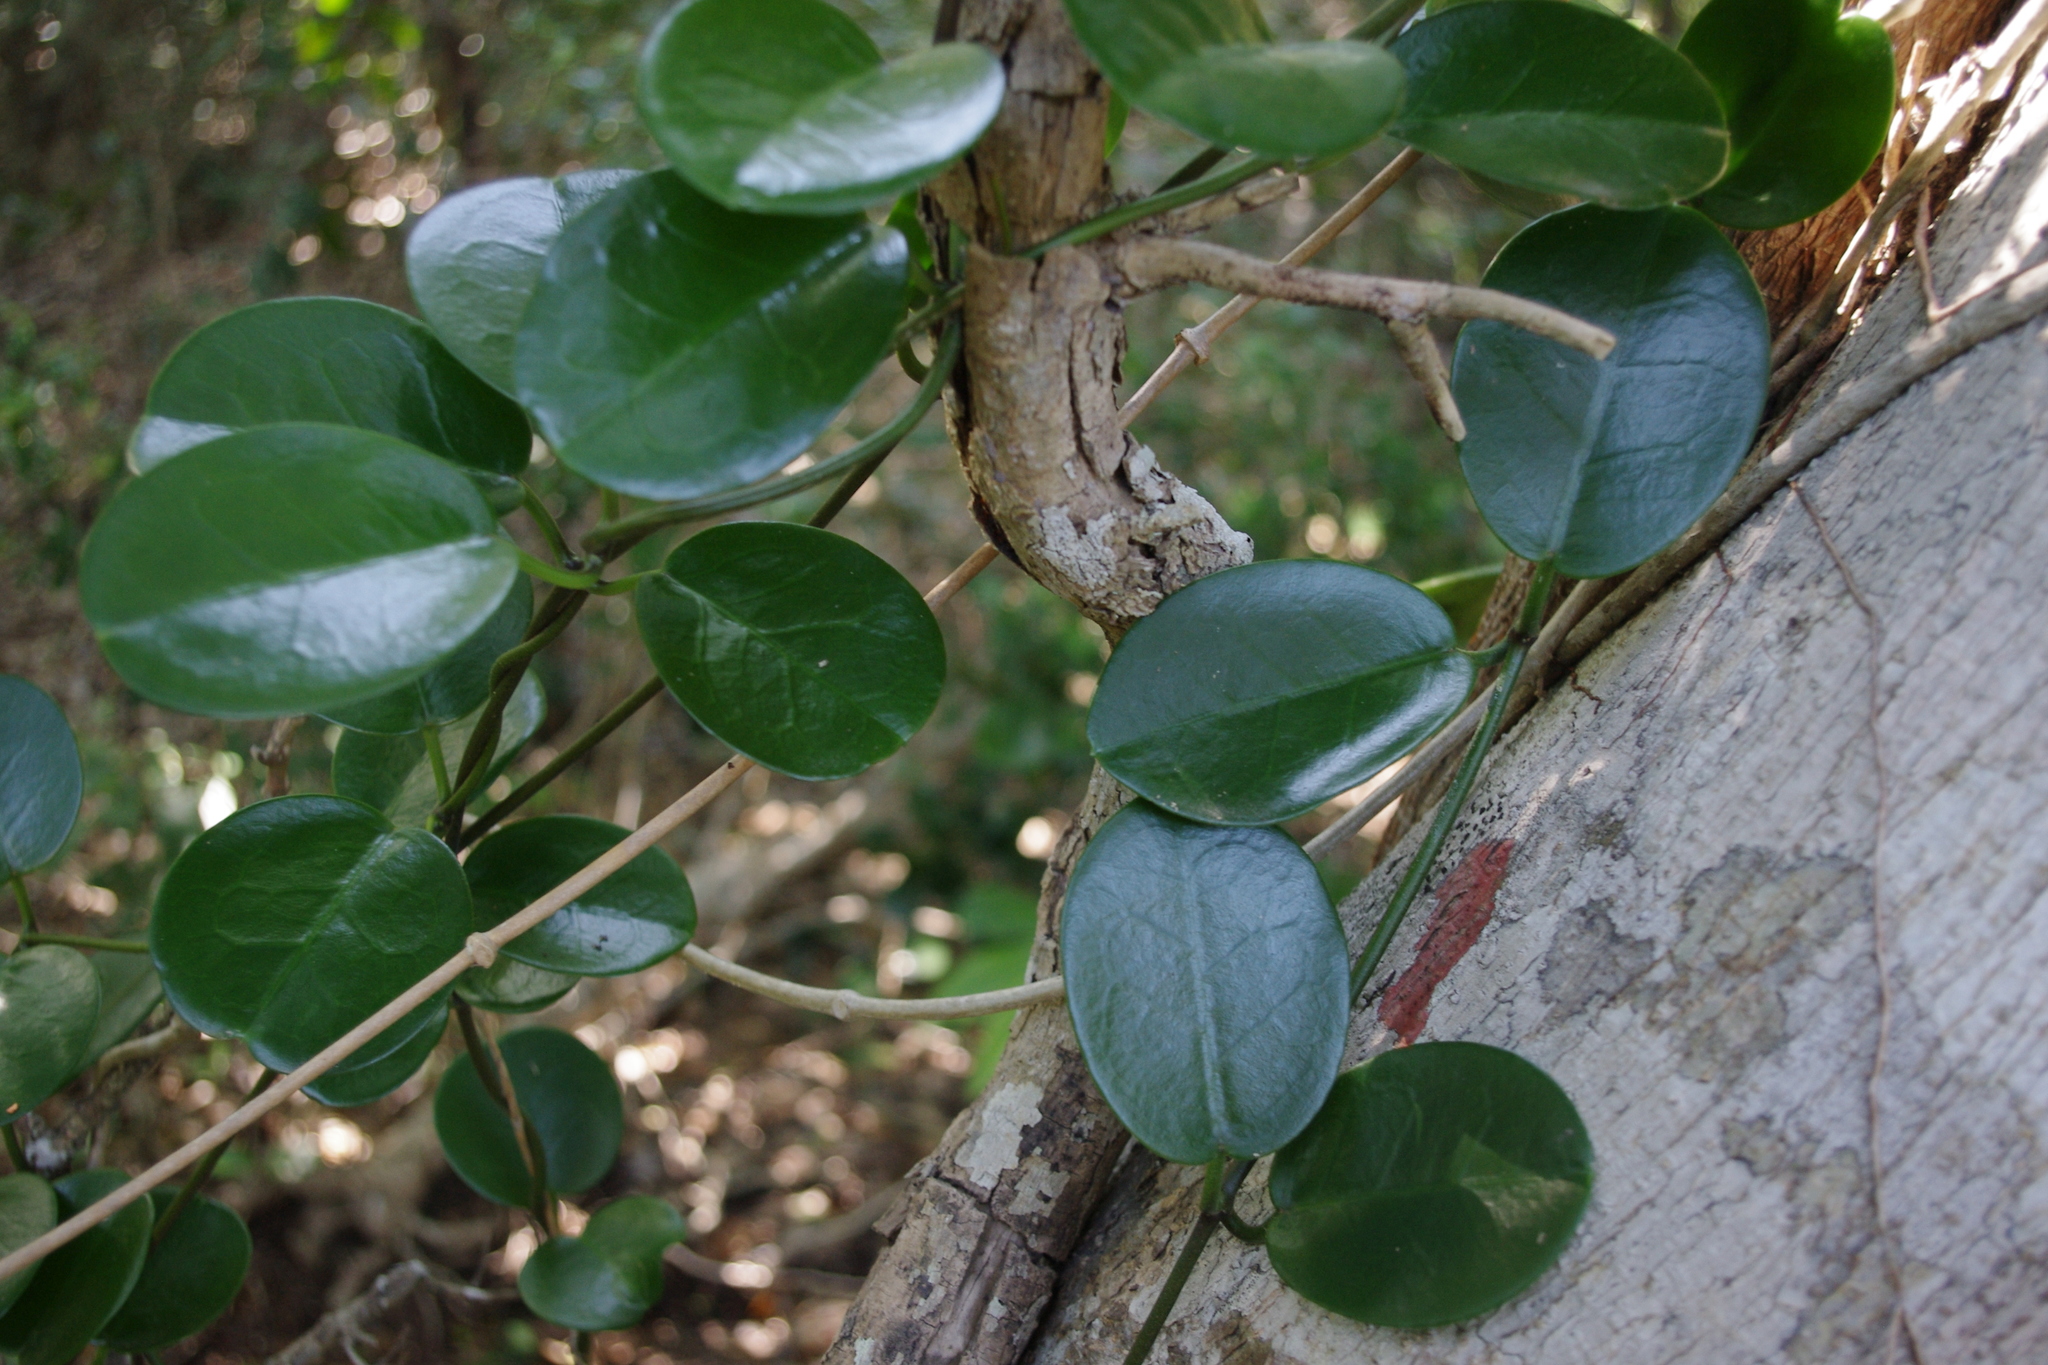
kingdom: Plantae
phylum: Tracheophyta
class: Magnoliopsida
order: Gentianales
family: Apocynaceae
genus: Hoya
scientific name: Hoya australis
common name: Wax flower
